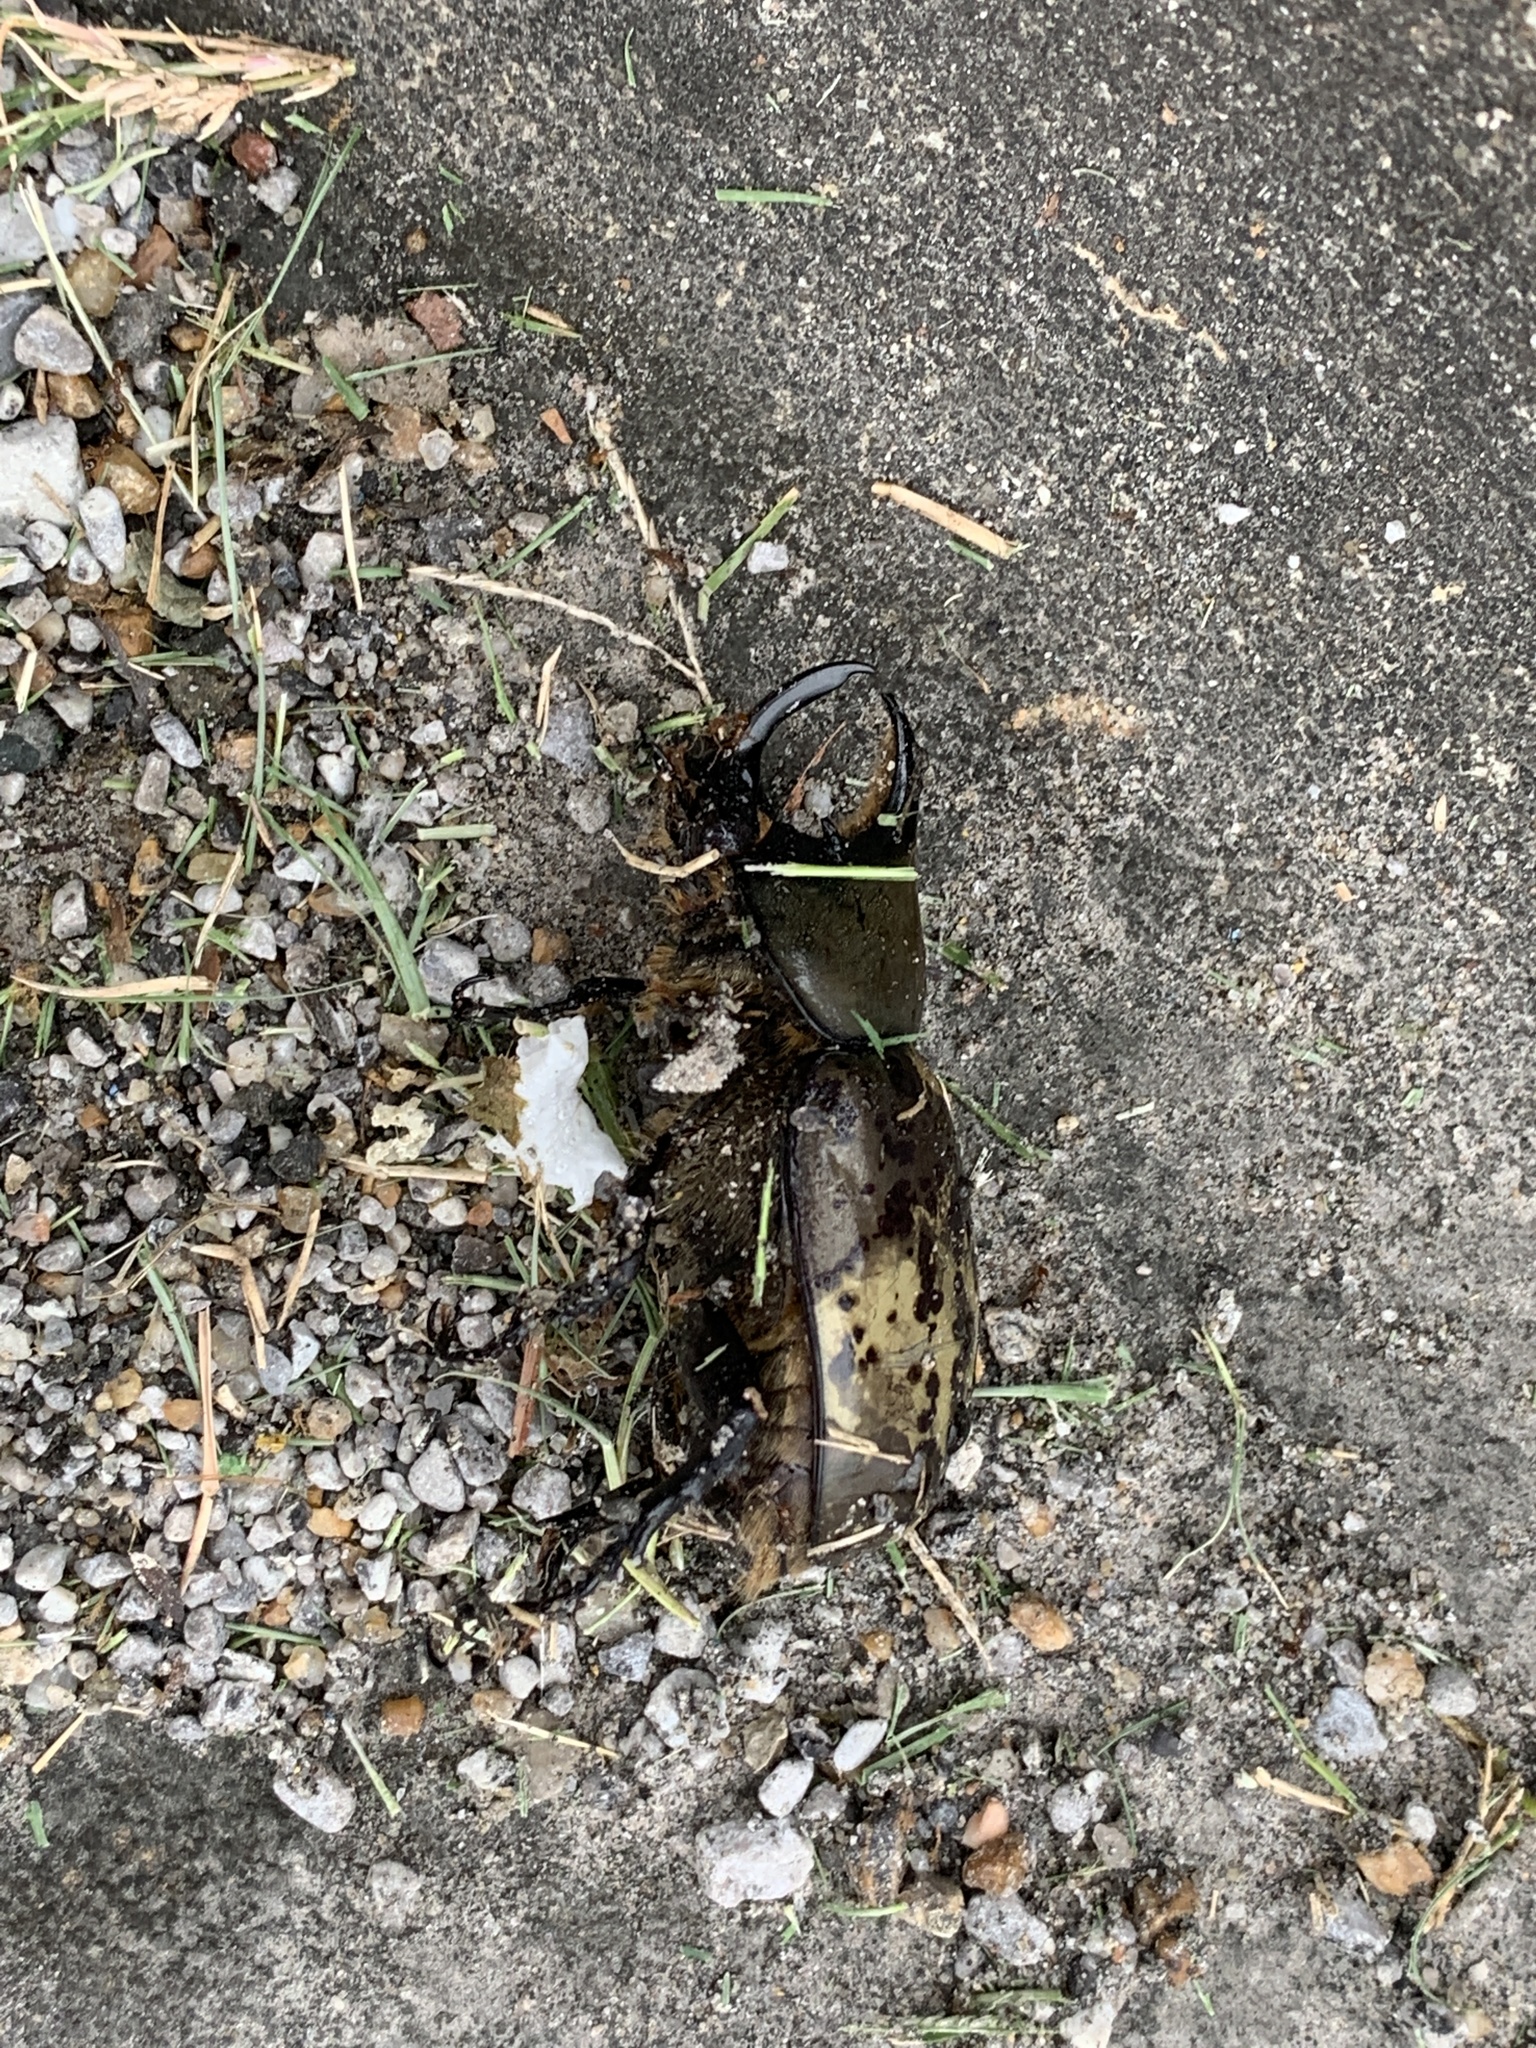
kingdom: Animalia
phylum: Arthropoda
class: Insecta
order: Coleoptera
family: Scarabaeidae
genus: Dynastes
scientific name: Dynastes tityus
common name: Eastern hercules beetle
